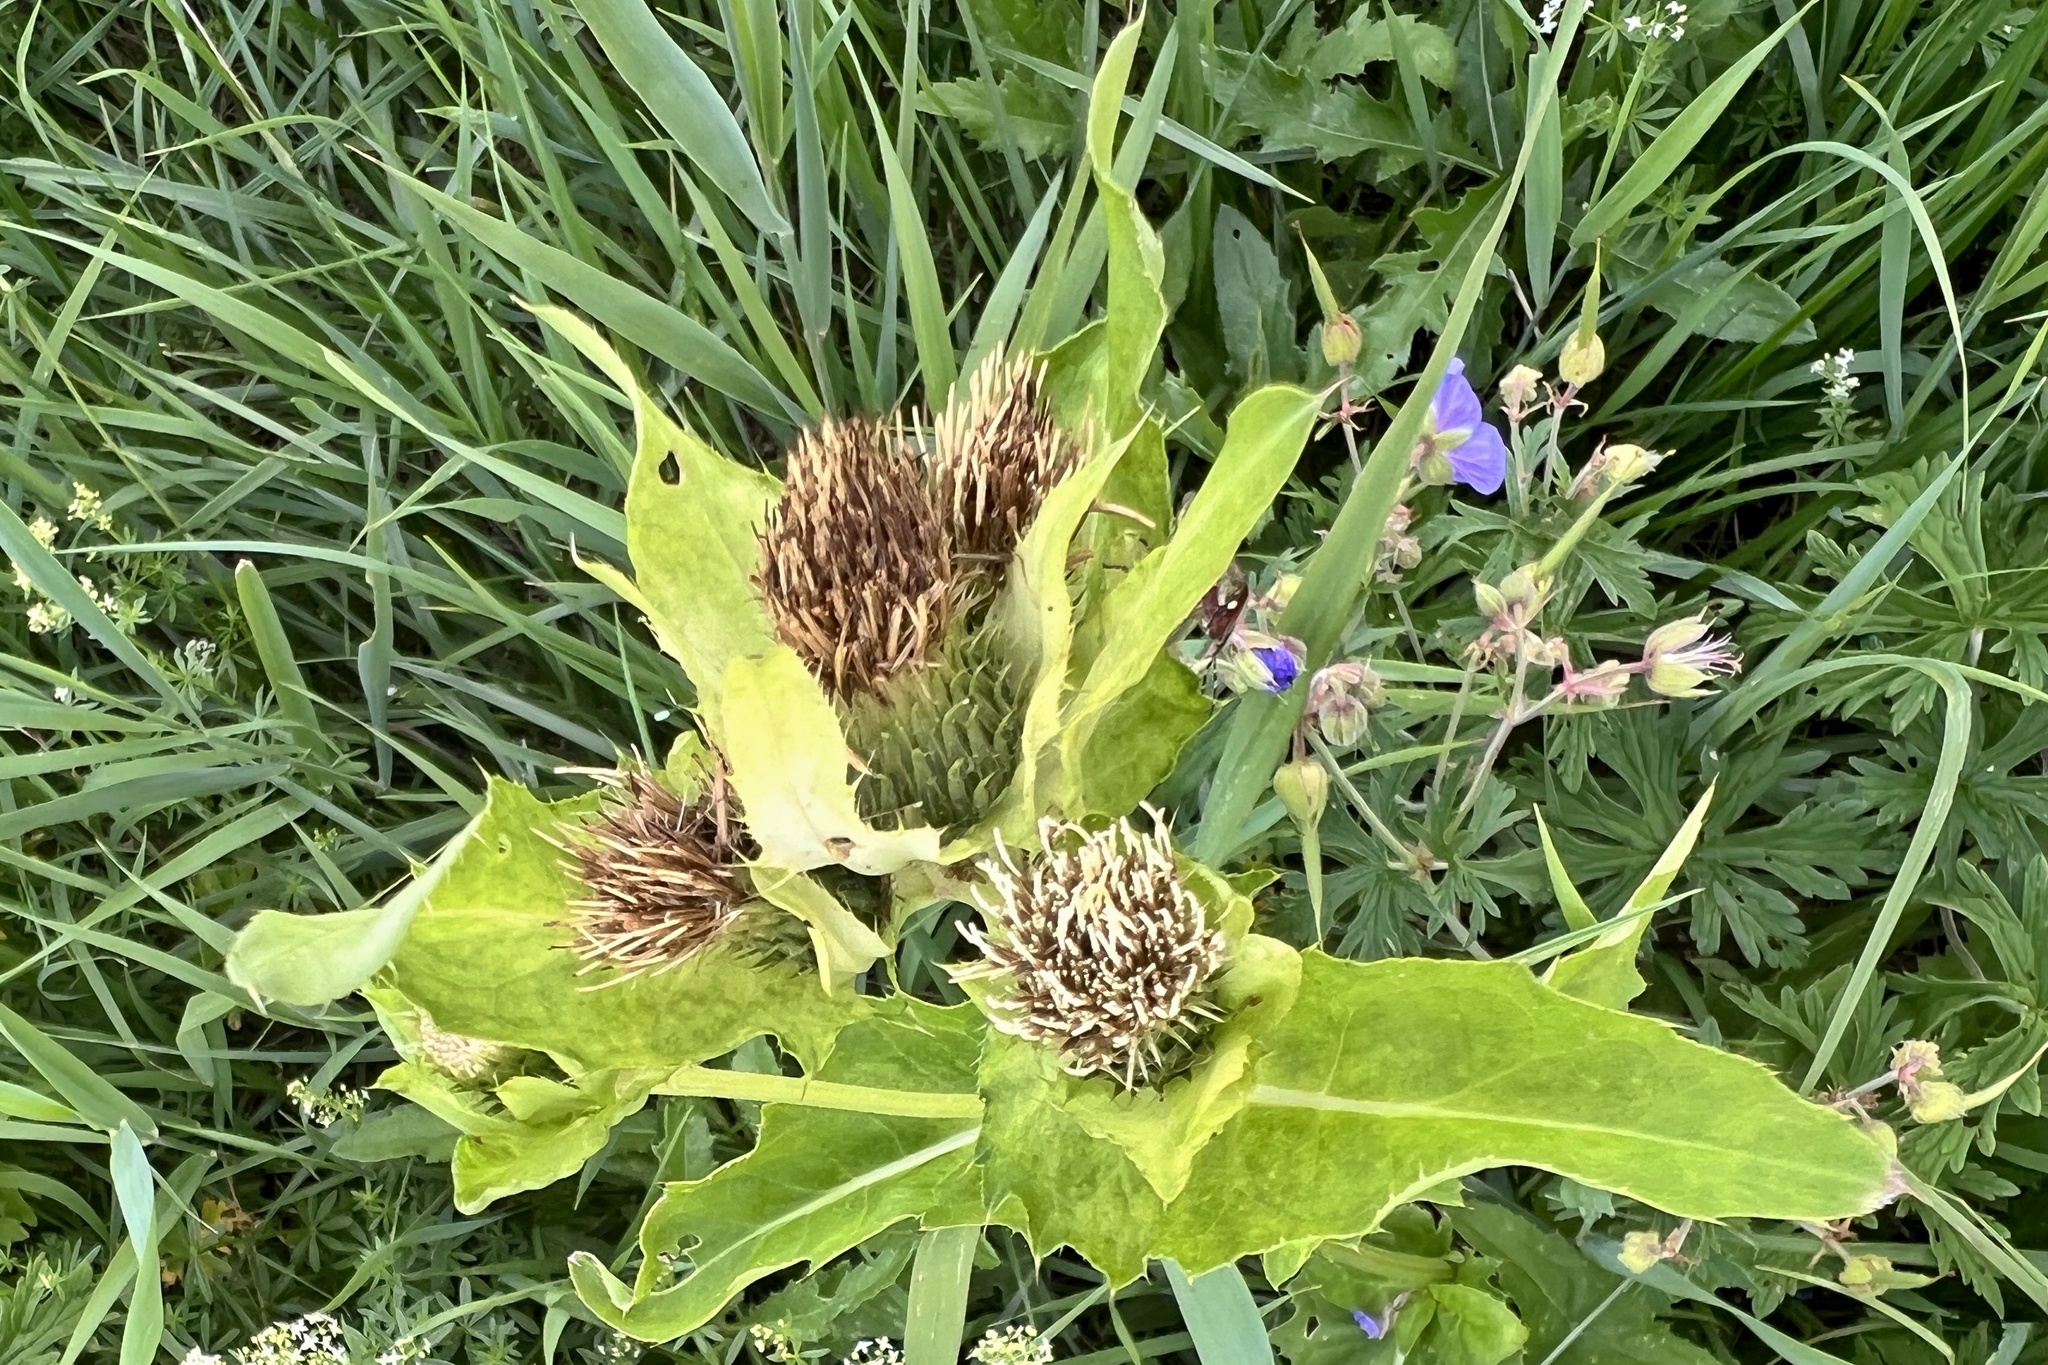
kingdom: Plantae
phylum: Tracheophyta
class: Magnoliopsida
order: Asterales
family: Asteraceae
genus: Cirsium
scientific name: Cirsium oleraceum
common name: Cabbage thistle
